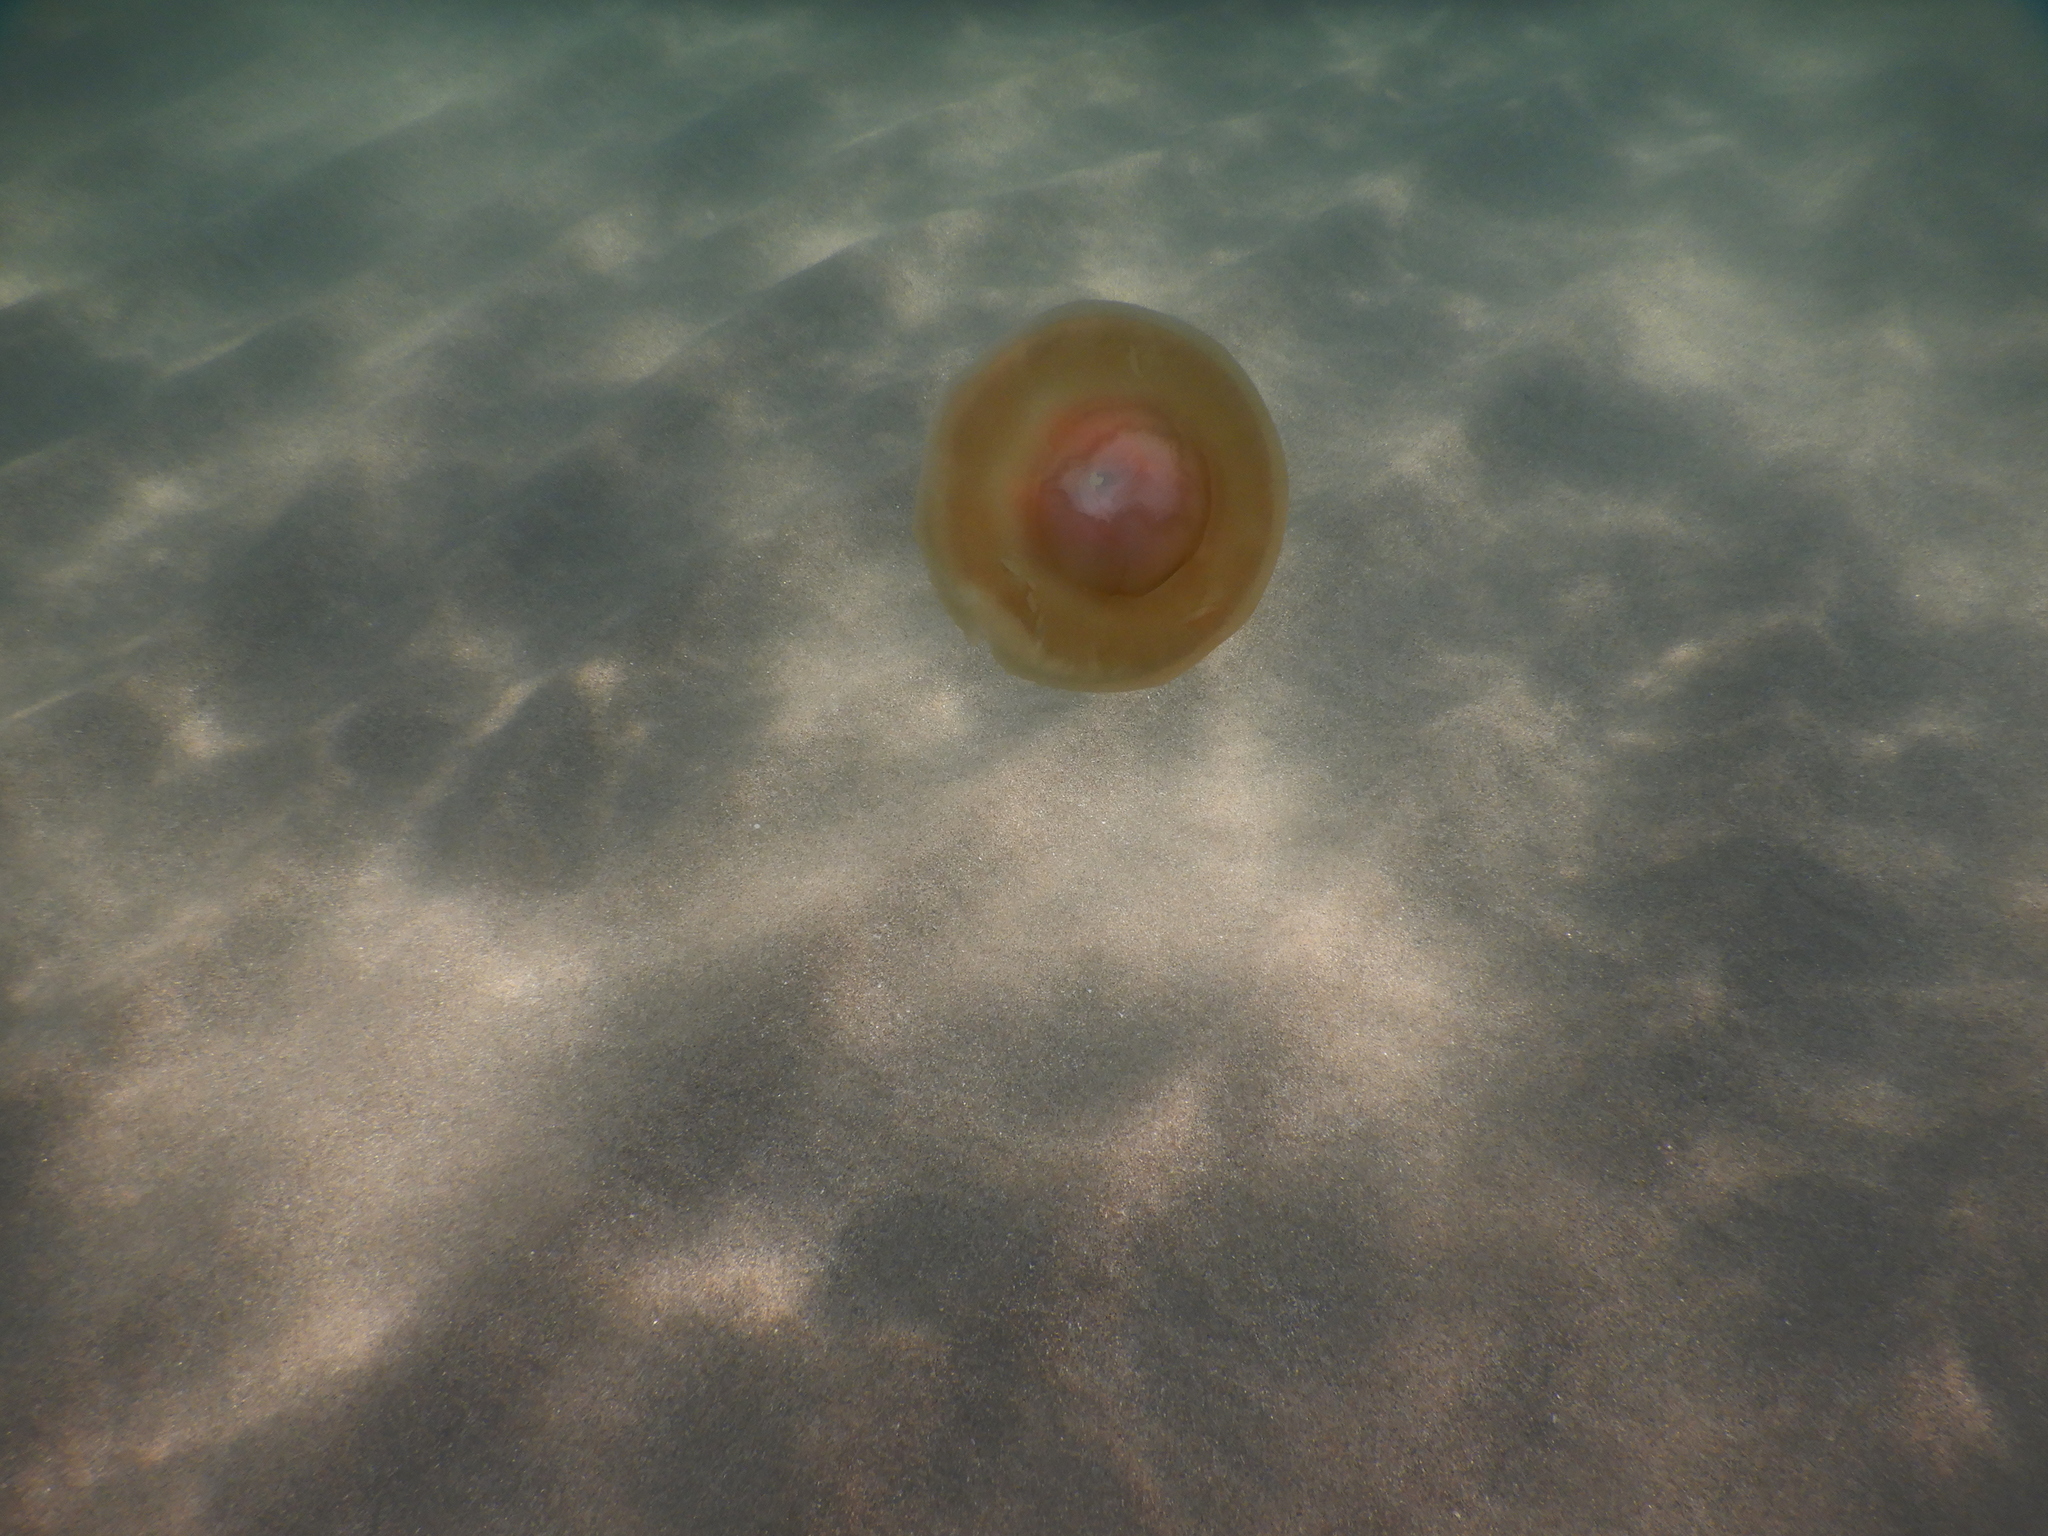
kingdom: Animalia
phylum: Cnidaria
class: Scyphozoa
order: Rhizostomeae
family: Cepheidae
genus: Cotylorhiza
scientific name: Cotylorhiza tuberculata
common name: Mediterranean jelly
